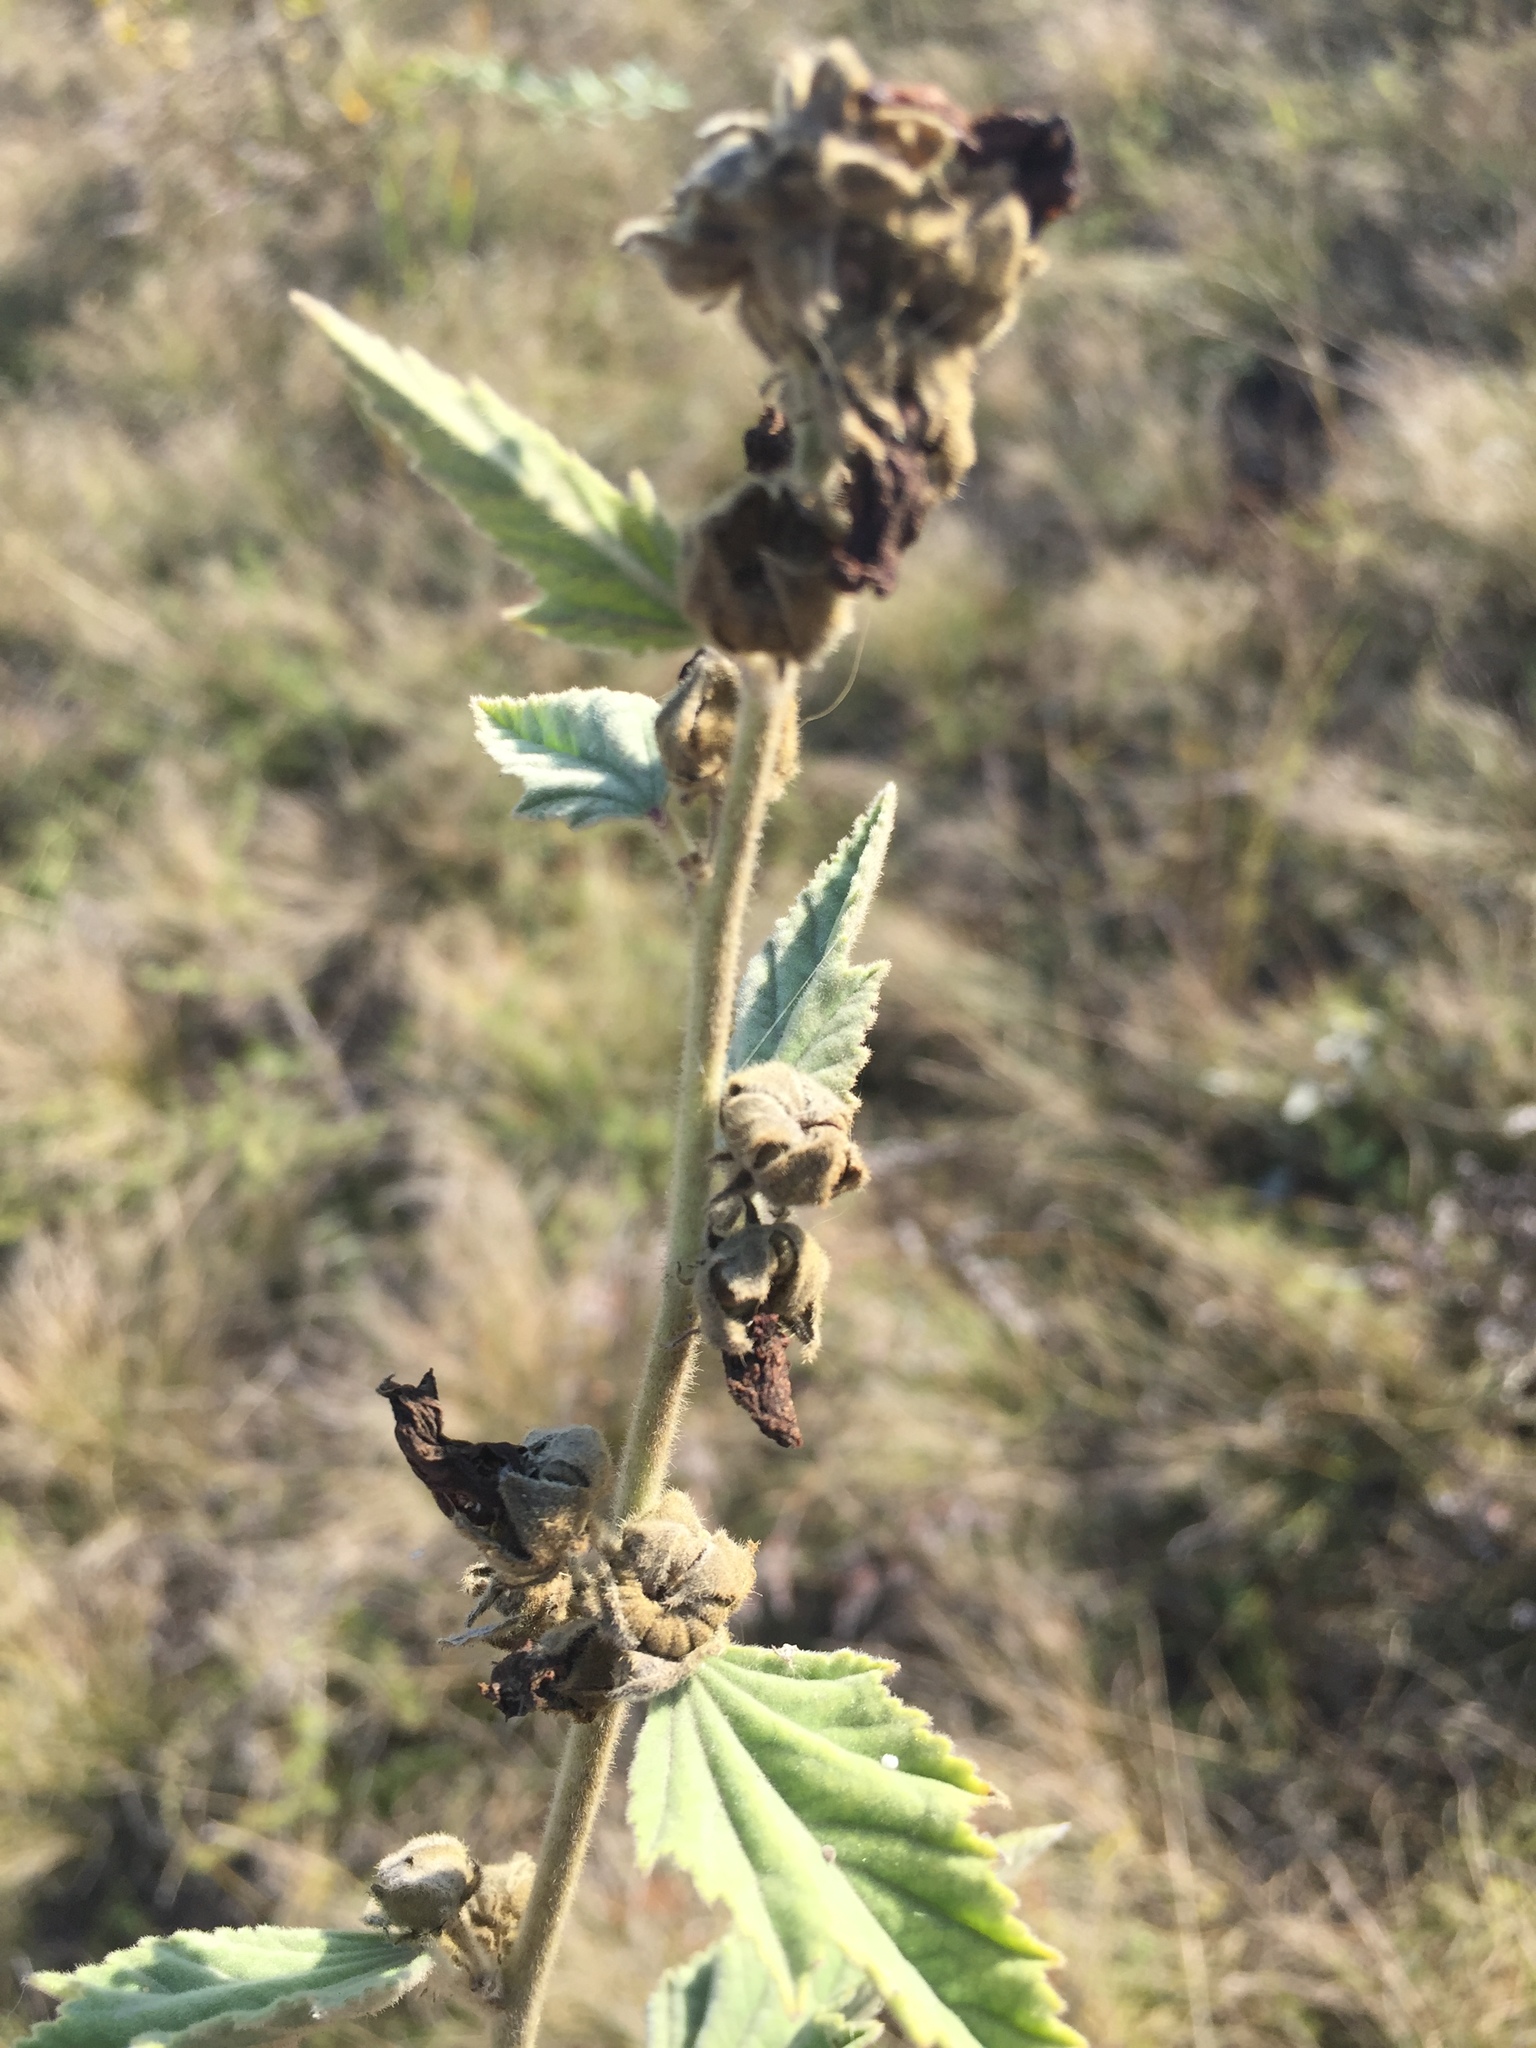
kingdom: Plantae
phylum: Tracheophyta
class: Magnoliopsida
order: Malvales
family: Malvaceae
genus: Althaea
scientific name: Althaea officinalis
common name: Marsh-mallow
